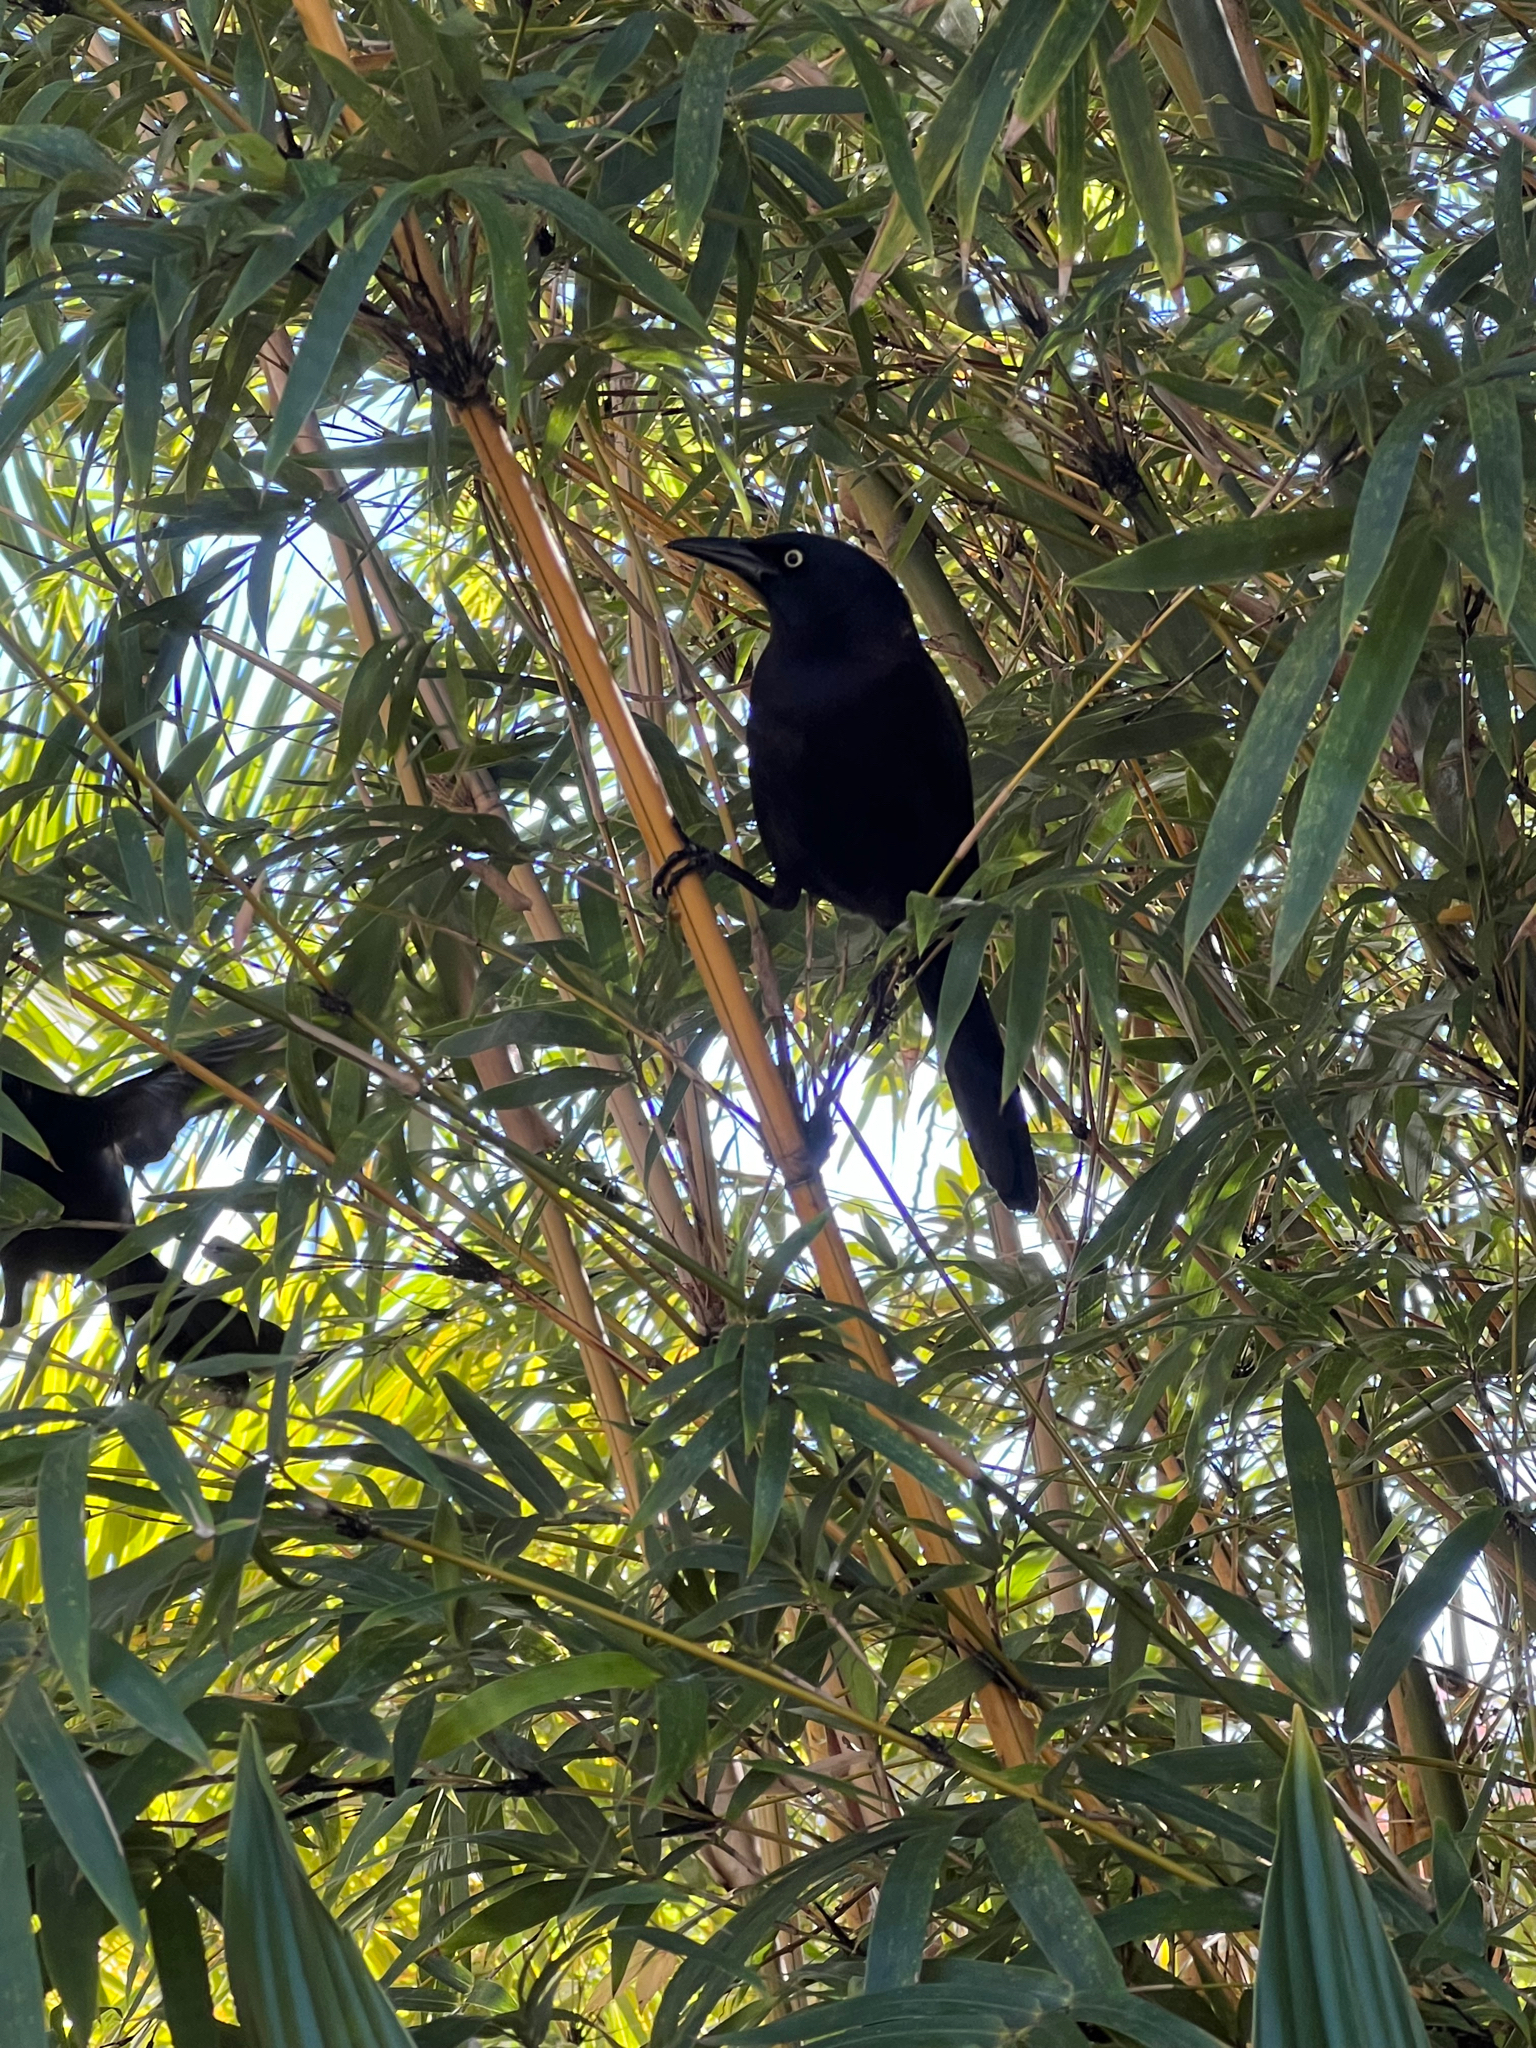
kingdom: Animalia
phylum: Chordata
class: Aves
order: Passeriformes
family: Icteridae
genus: Quiscalus
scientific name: Quiscalus quiscula
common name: Common grackle
